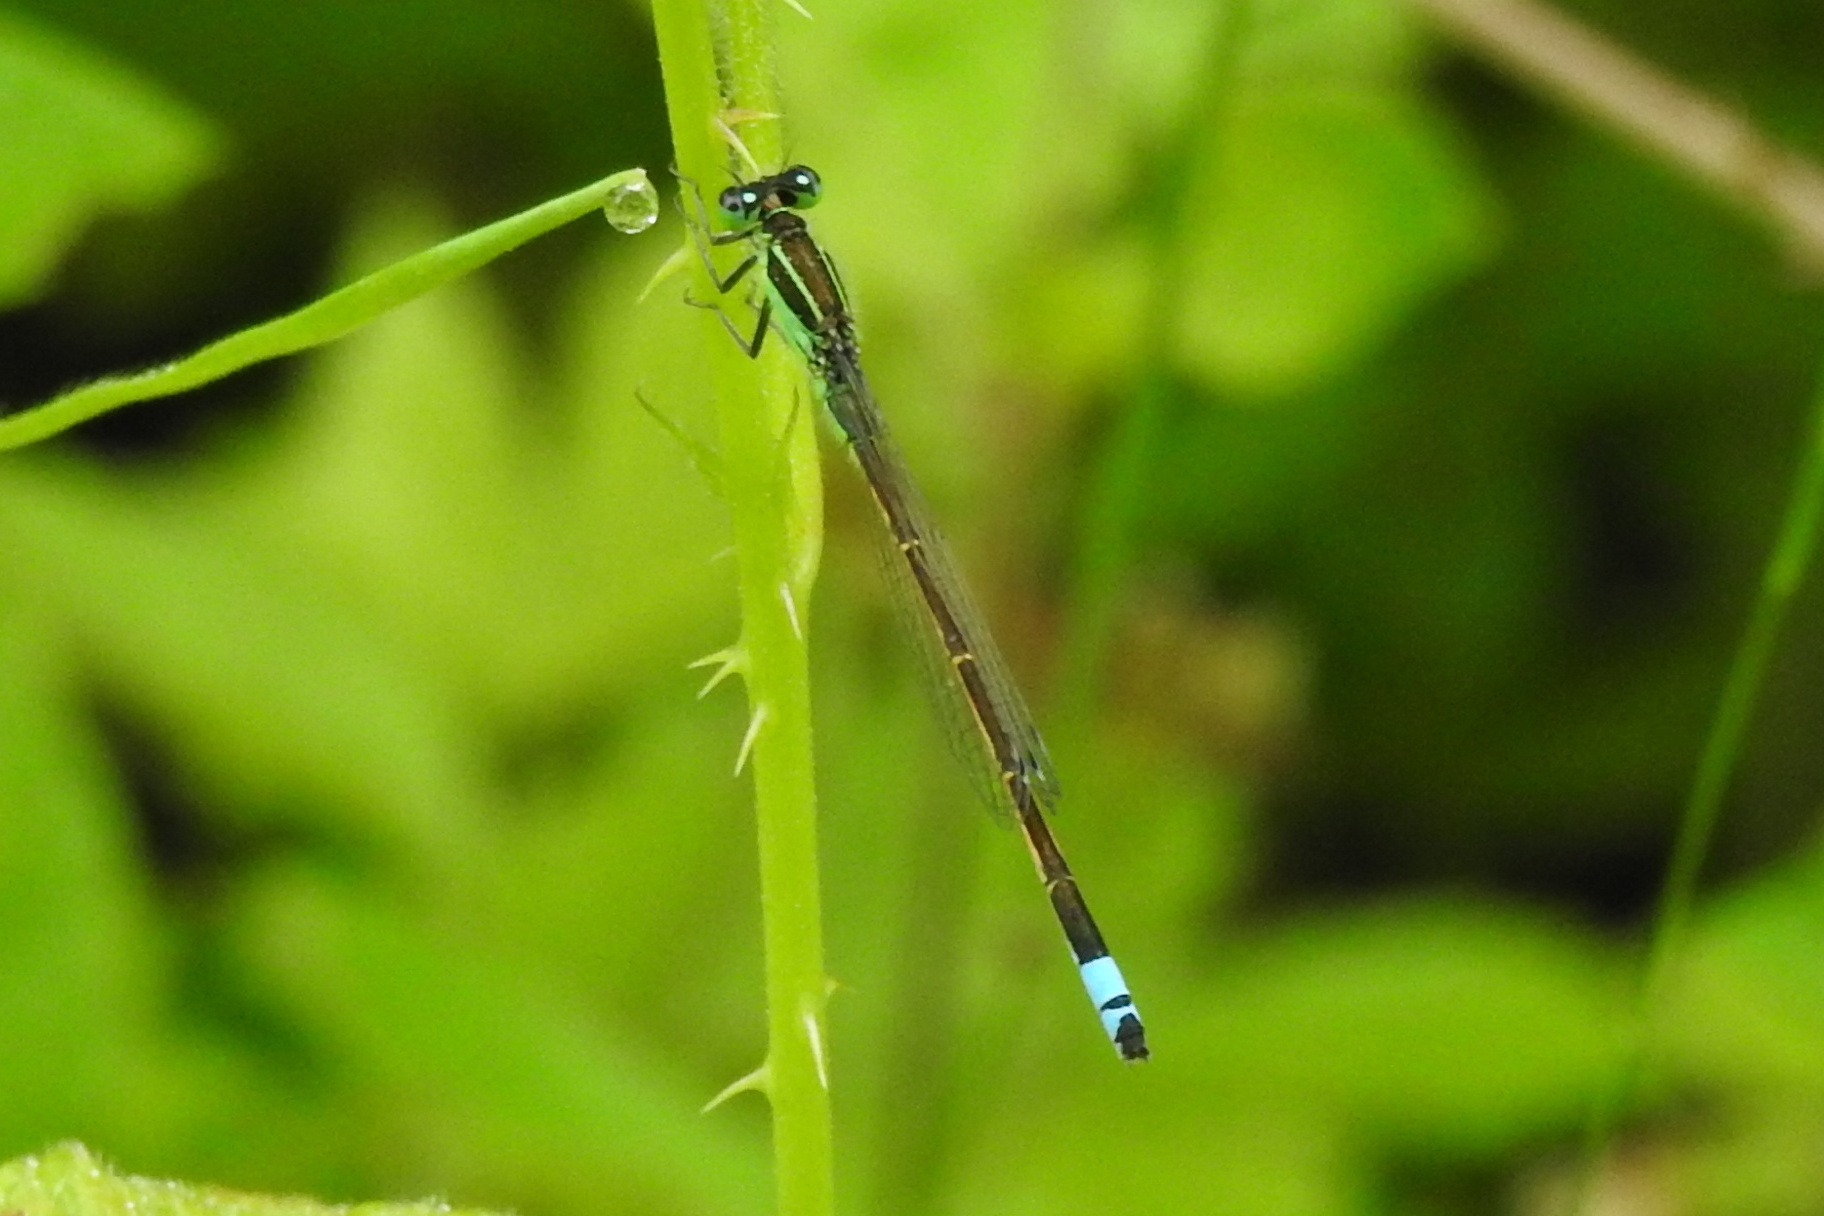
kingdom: Animalia
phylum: Arthropoda
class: Insecta
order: Odonata
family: Coenagrionidae
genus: Ischnura
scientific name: Ischnura ramburii
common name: Rambur's forktail
